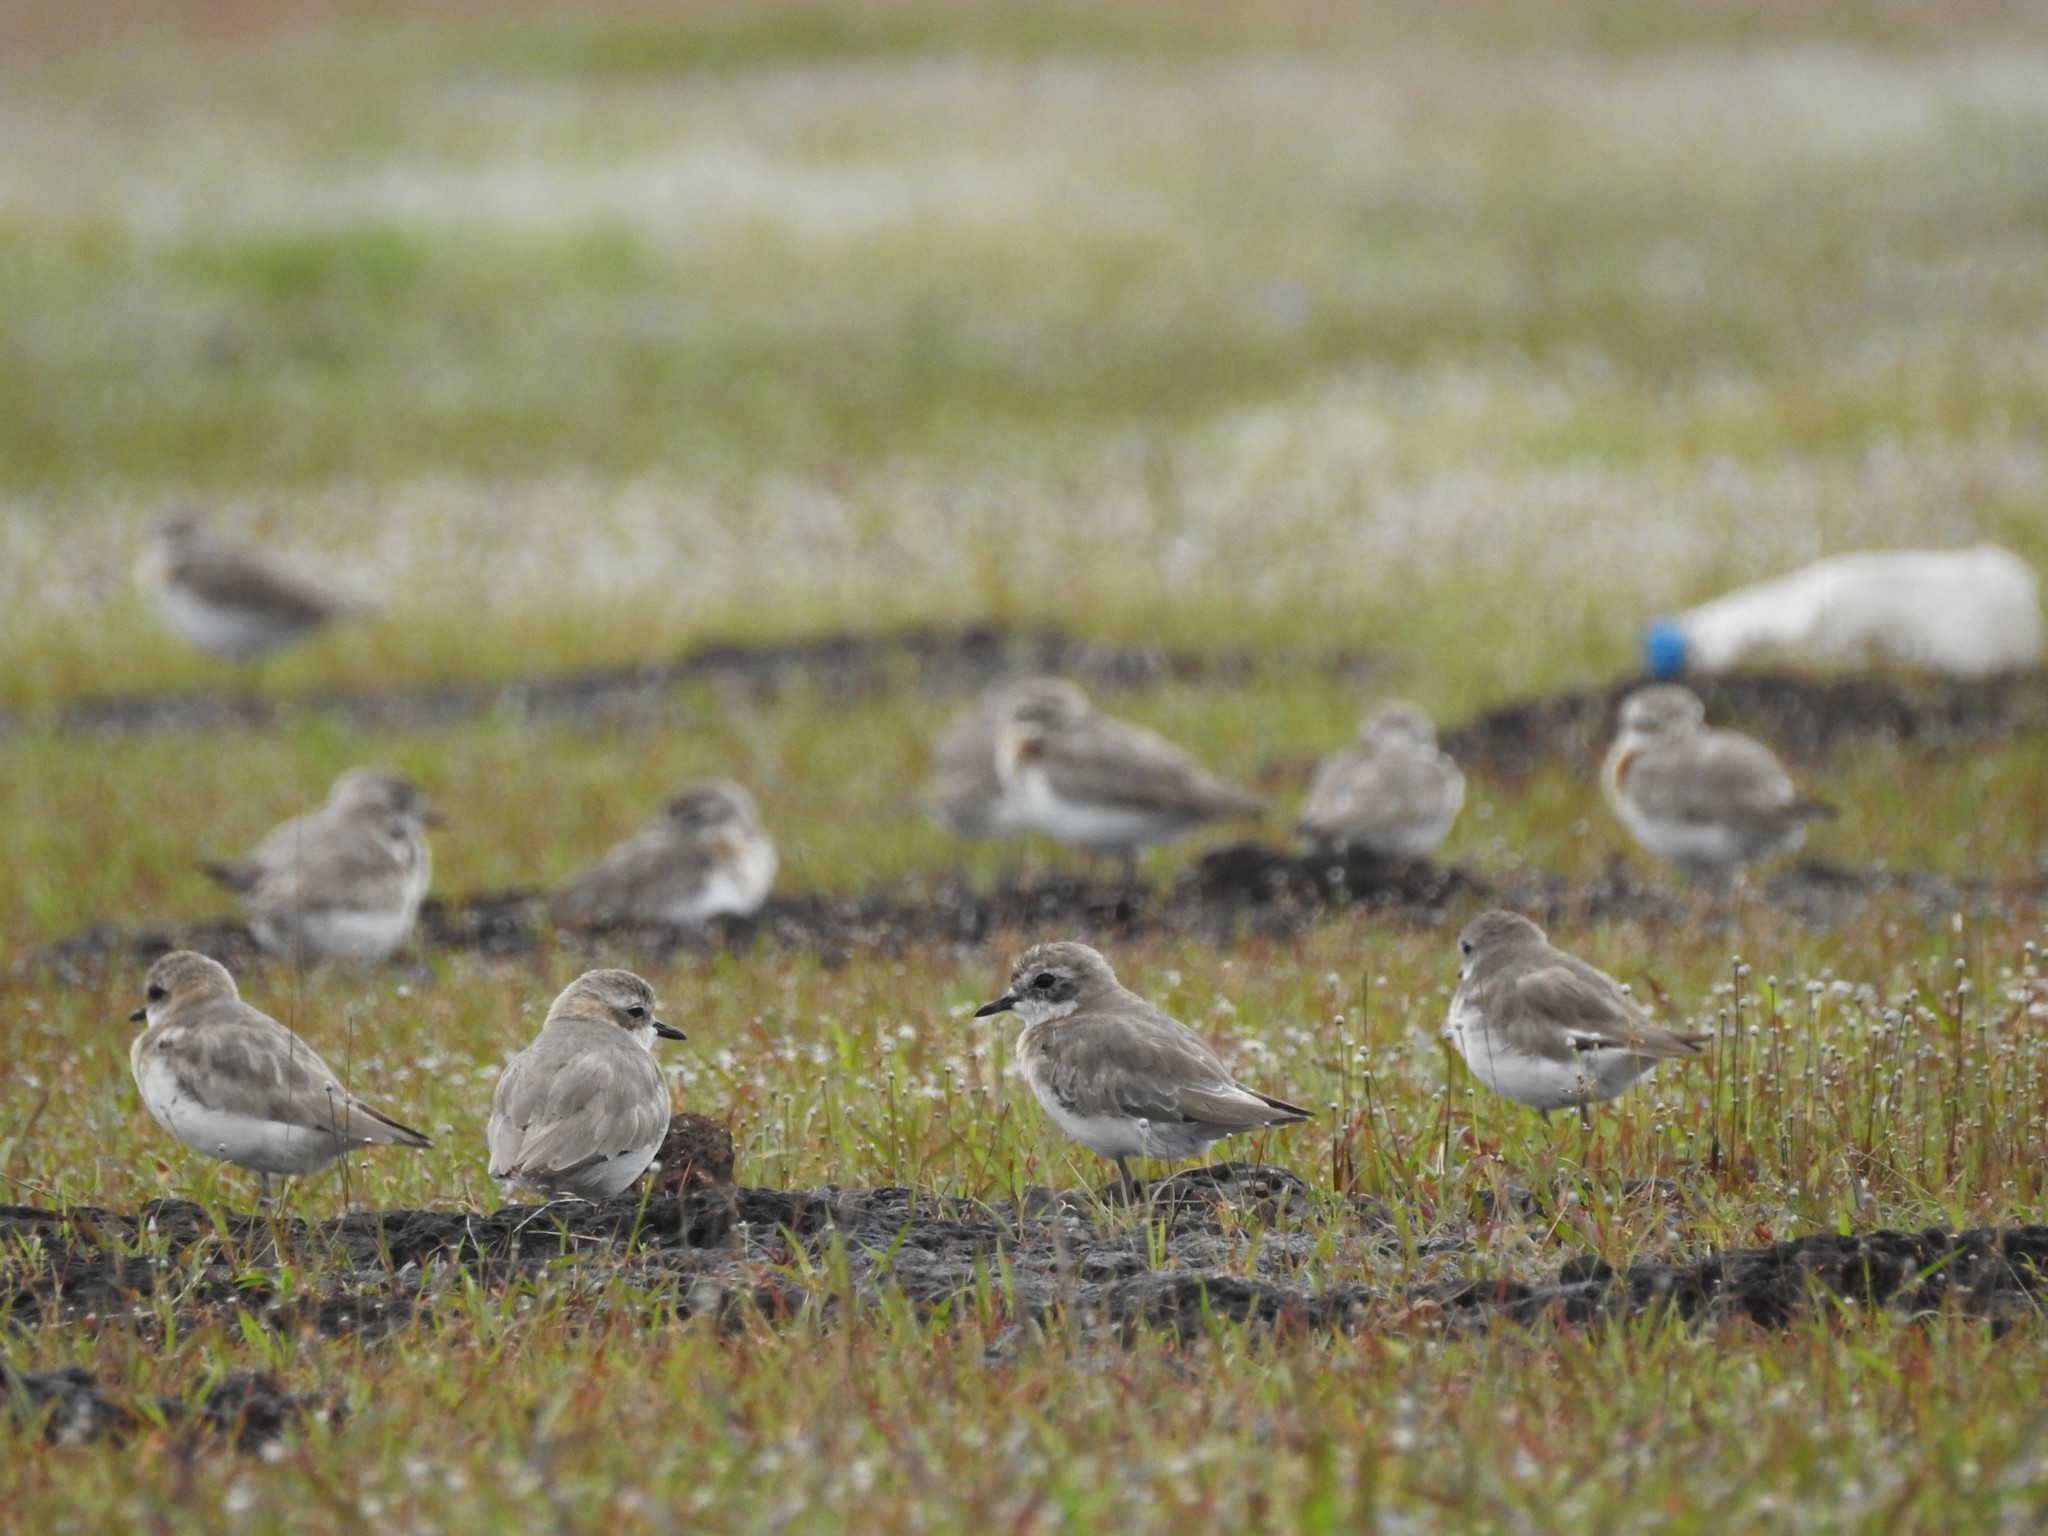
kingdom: Animalia
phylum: Chordata
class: Aves
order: Charadriiformes
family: Charadriidae
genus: Anarhynchus
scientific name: Anarhynchus
